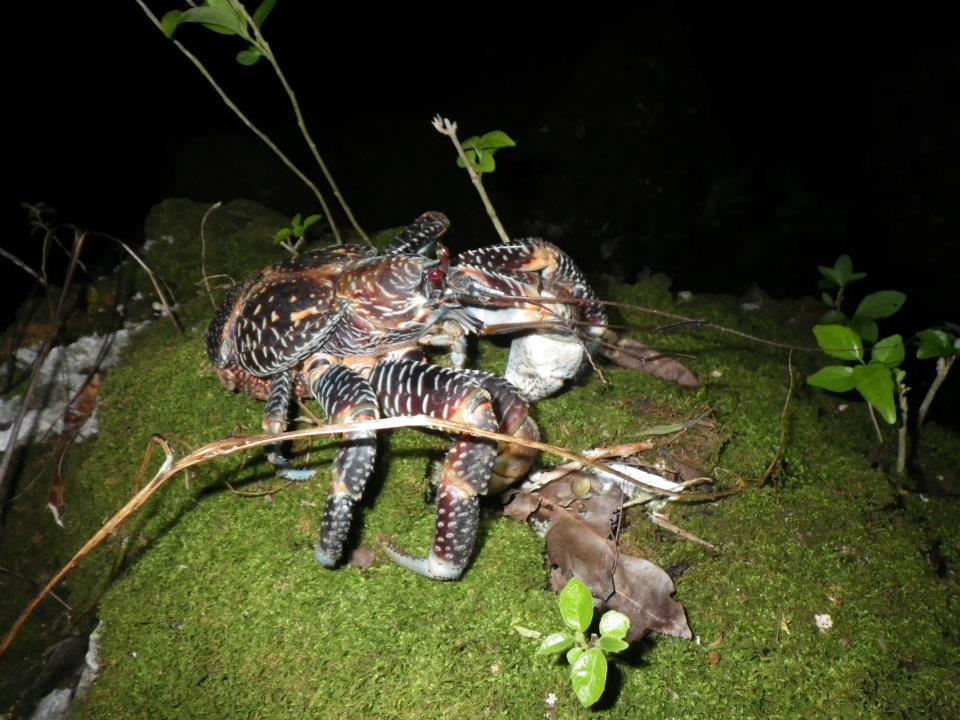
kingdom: Animalia
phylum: Arthropoda
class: Malacostraca
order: Decapoda
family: Coenobitidae
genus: Birgus
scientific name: Birgus latro
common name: Coconut crab
